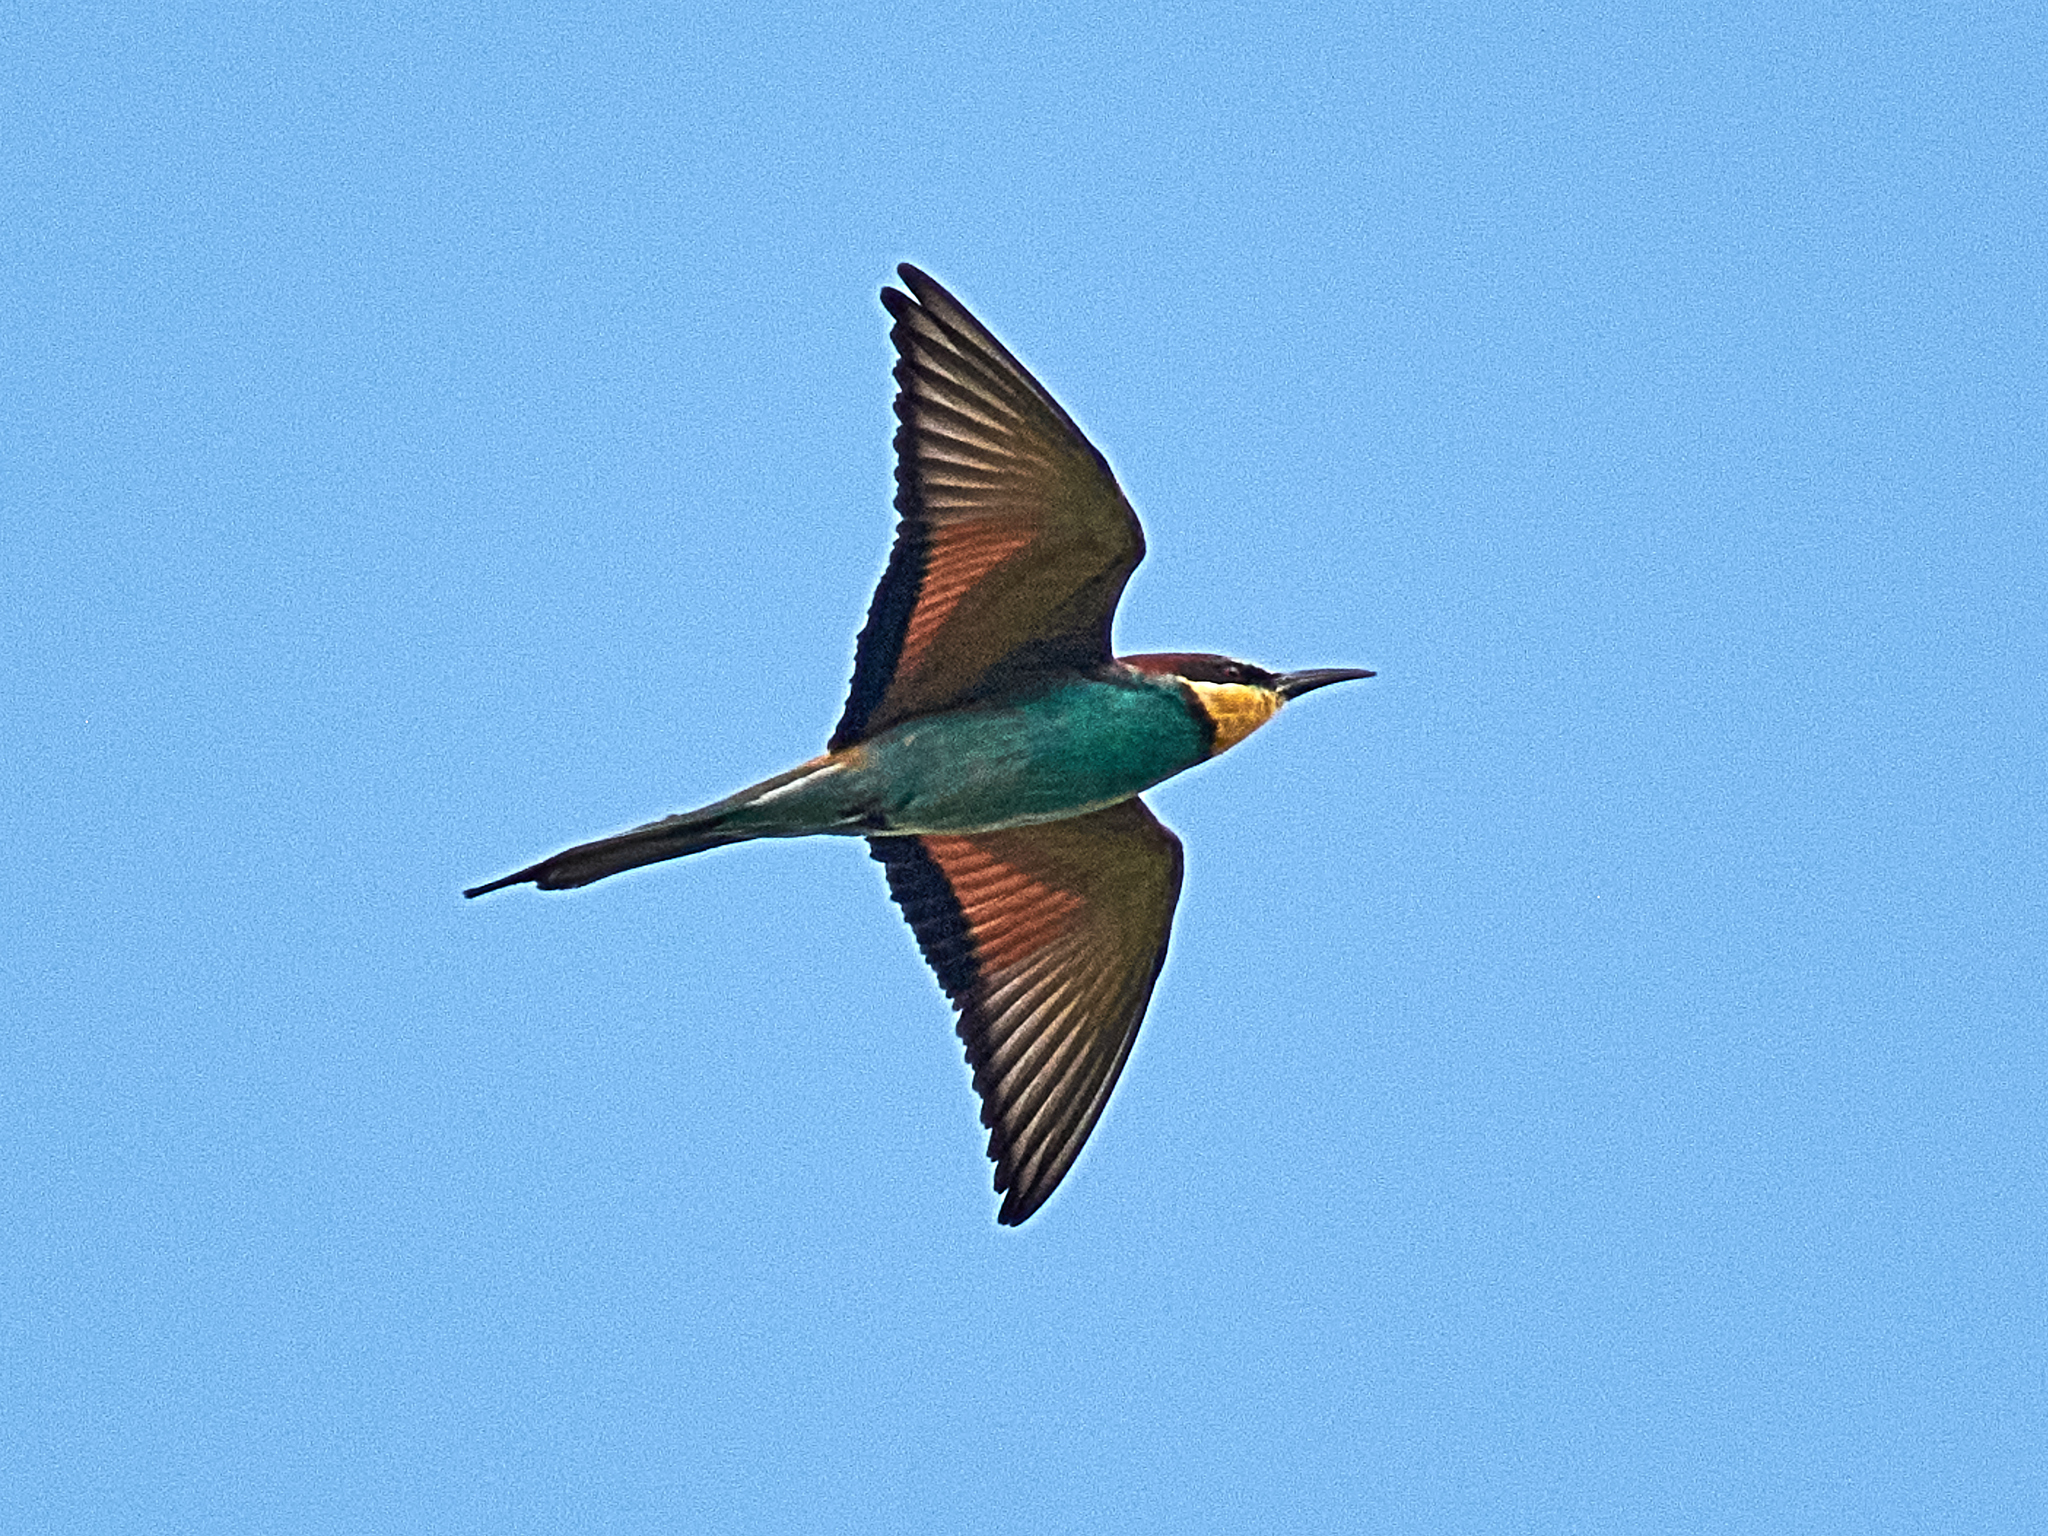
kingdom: Animalia
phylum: Chordata
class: Aves
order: Coraciiformes
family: Meropidae
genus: Merops
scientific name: Merops apiaster
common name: European bee-eater
